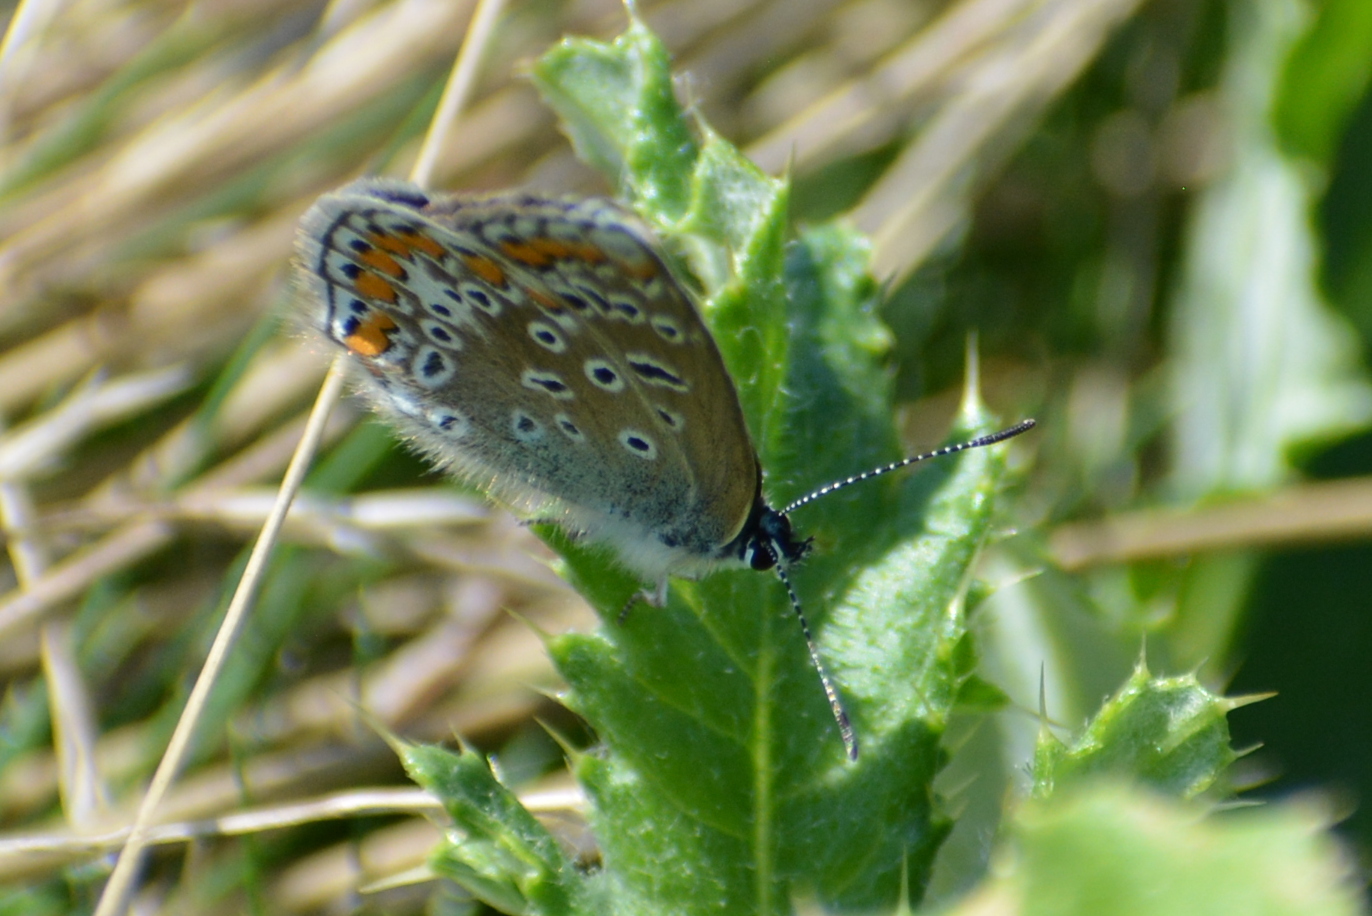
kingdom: Animalia
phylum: Arthropoda
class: Insecta
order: Lepidoptera
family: Lycaenidae
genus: Polyommatus
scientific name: Polyommatus icarus
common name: Common blue
